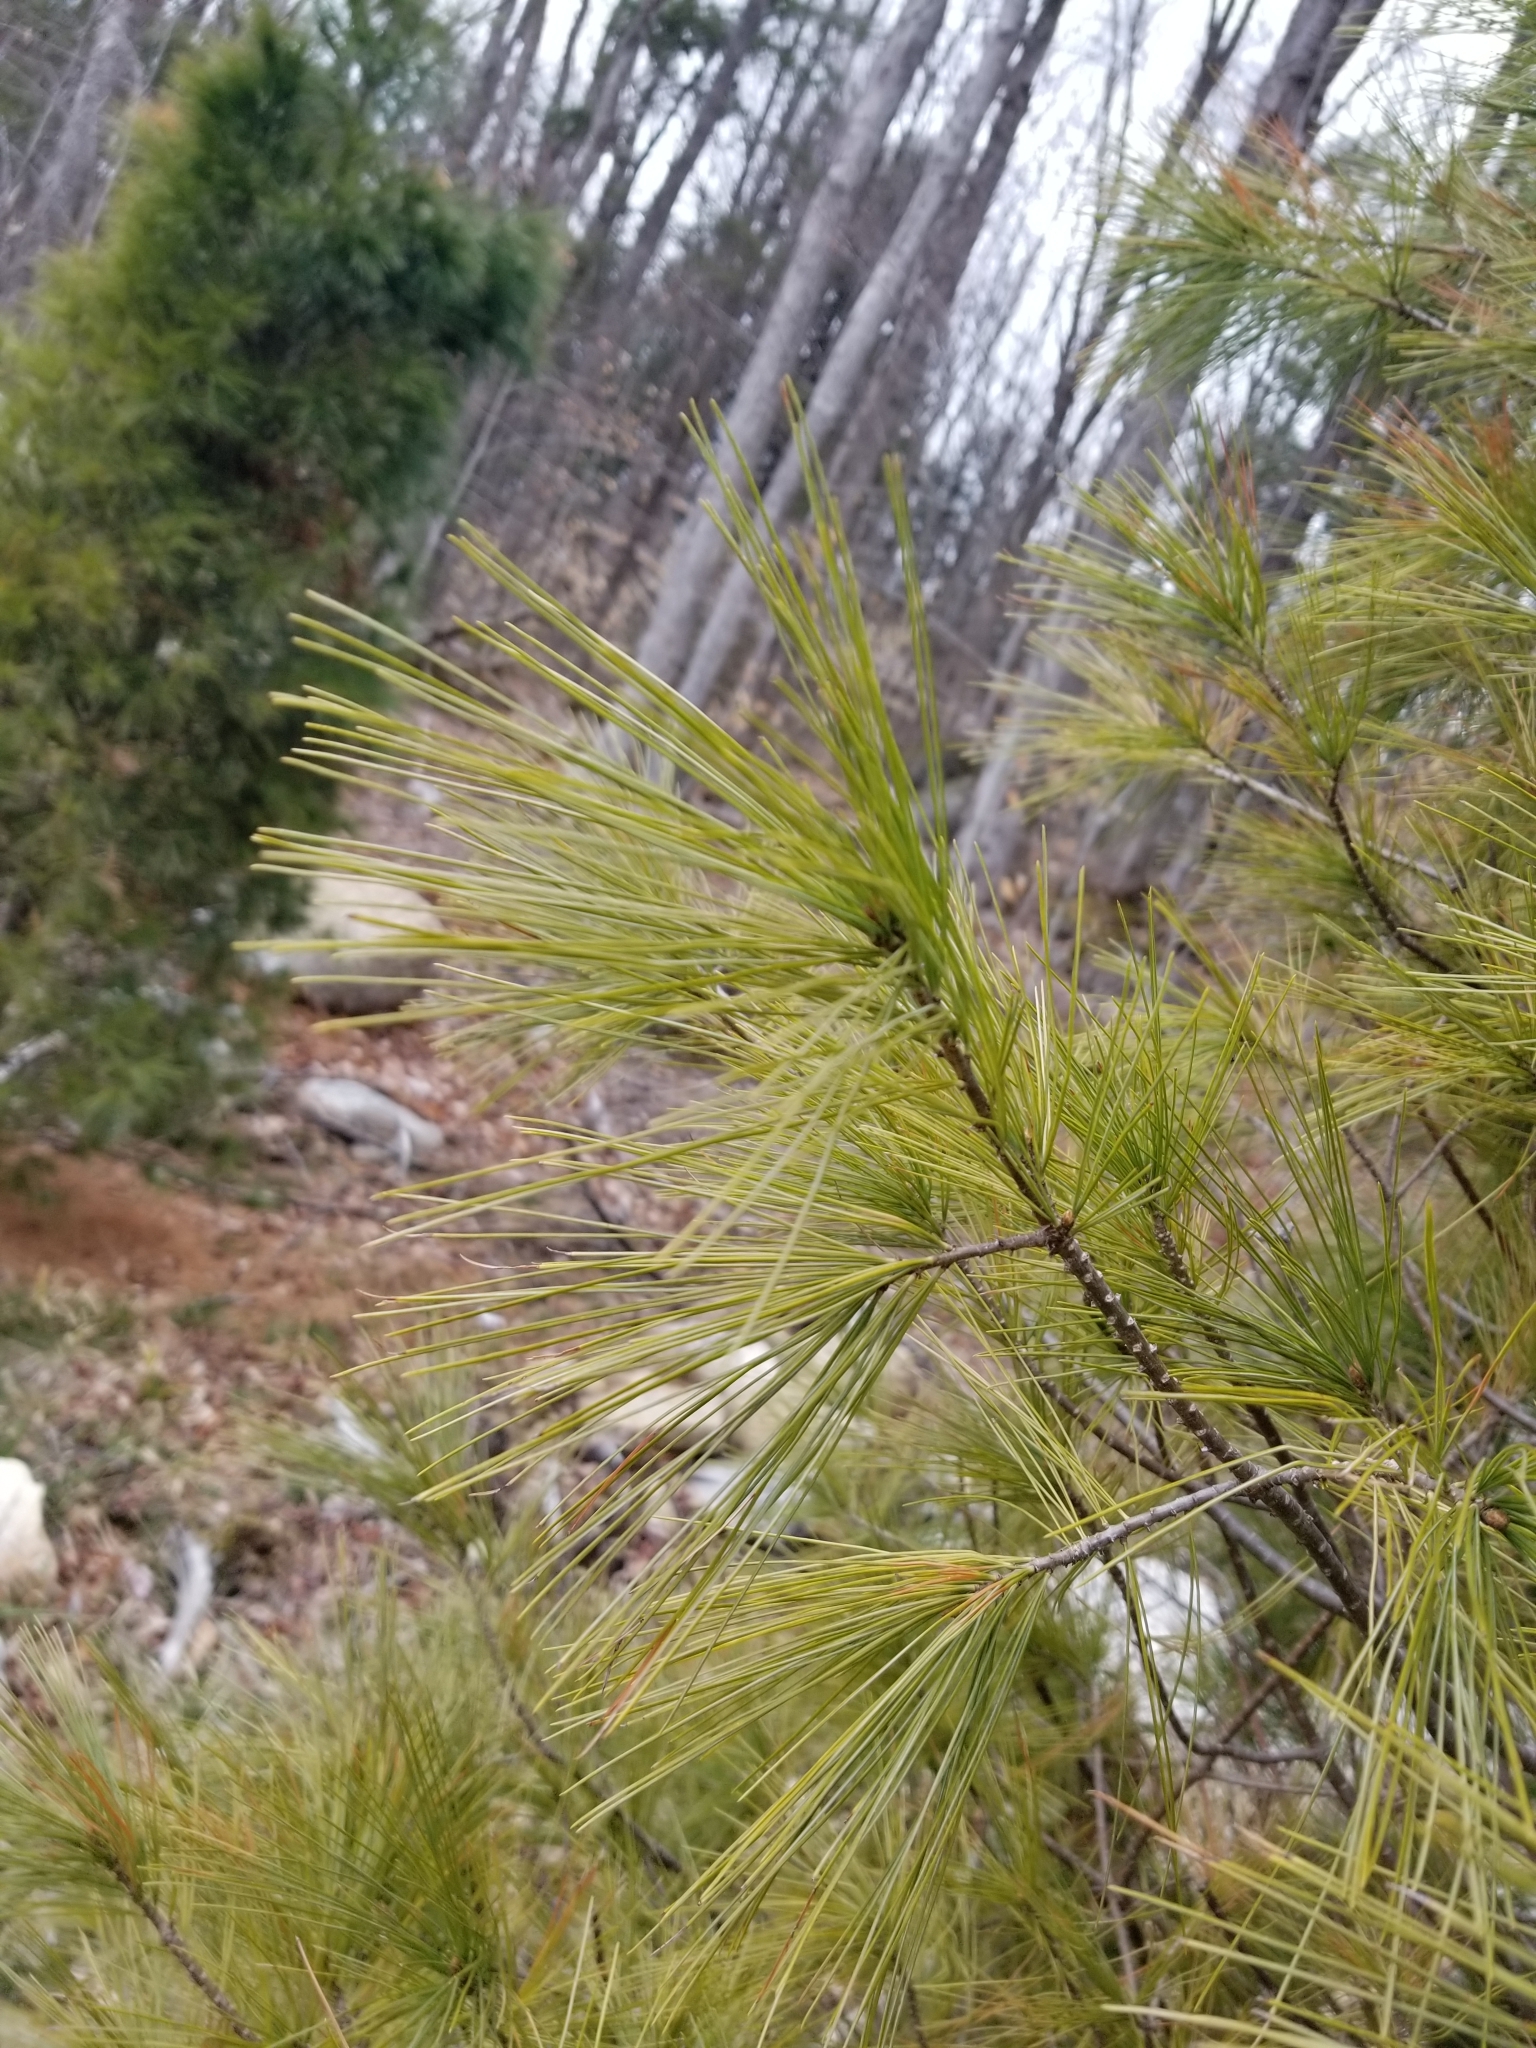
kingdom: Plantae
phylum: Tracheophyta
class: Pinopsida
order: Pinales
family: Pinaceae
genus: Pinus
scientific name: Pinus strobus
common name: Weymouth pine
